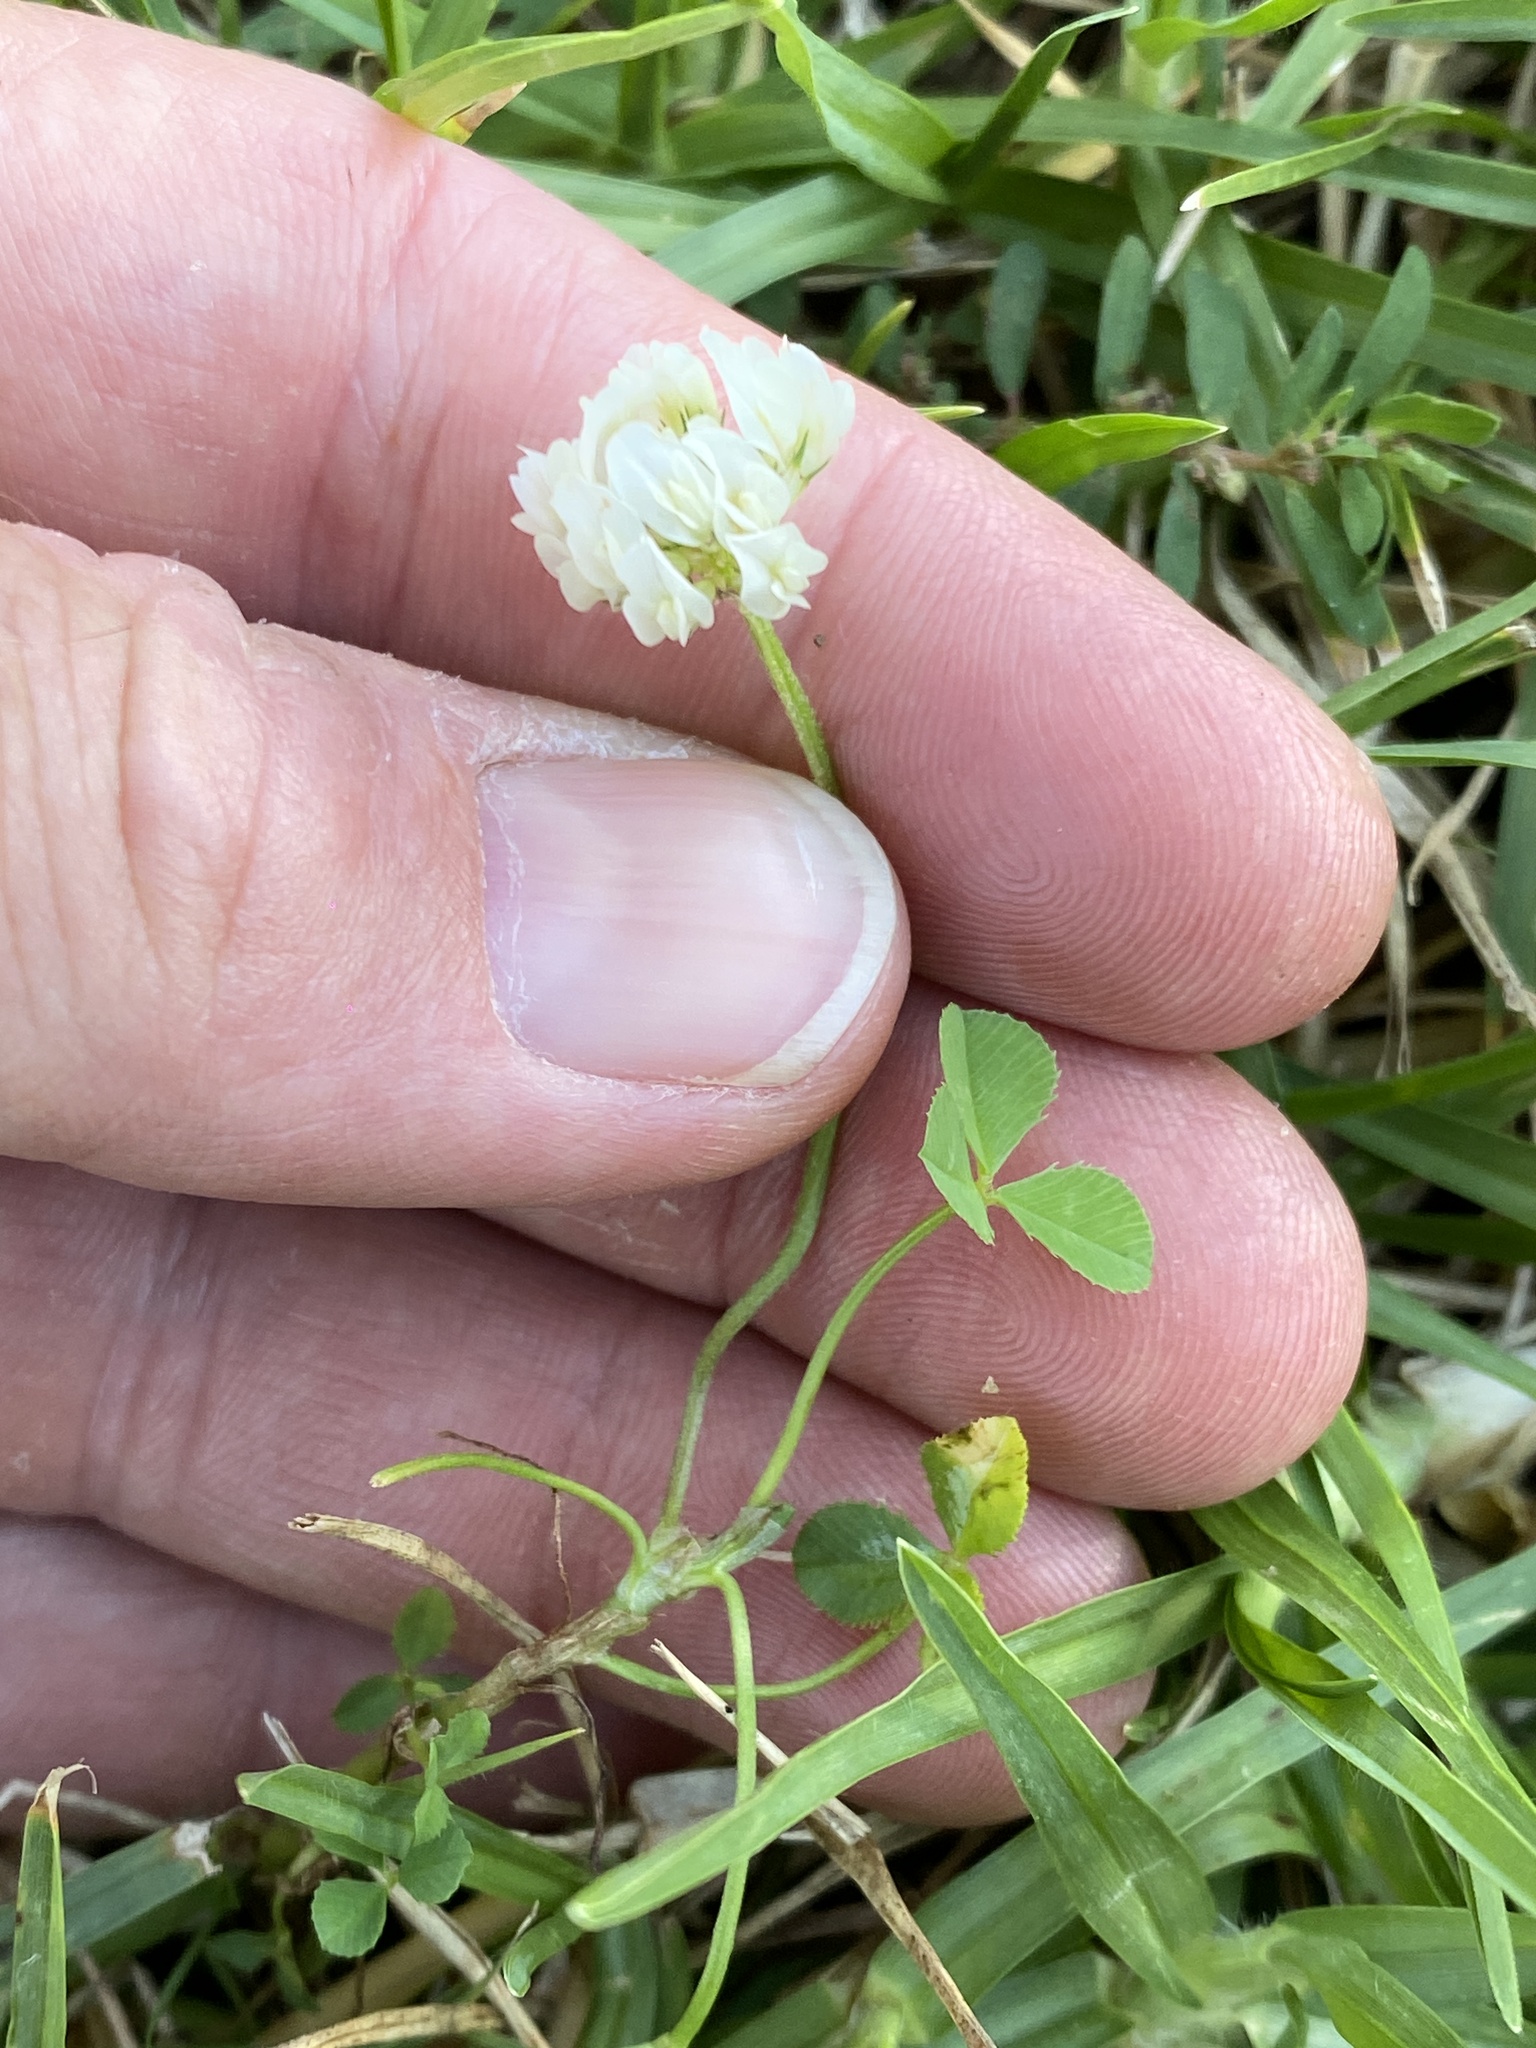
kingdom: Plantae
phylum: Tracheophyta
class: Magnoliopsida
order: Fabales
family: Fabaceae
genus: Trifolium
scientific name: Trifolium repens
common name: White clover
